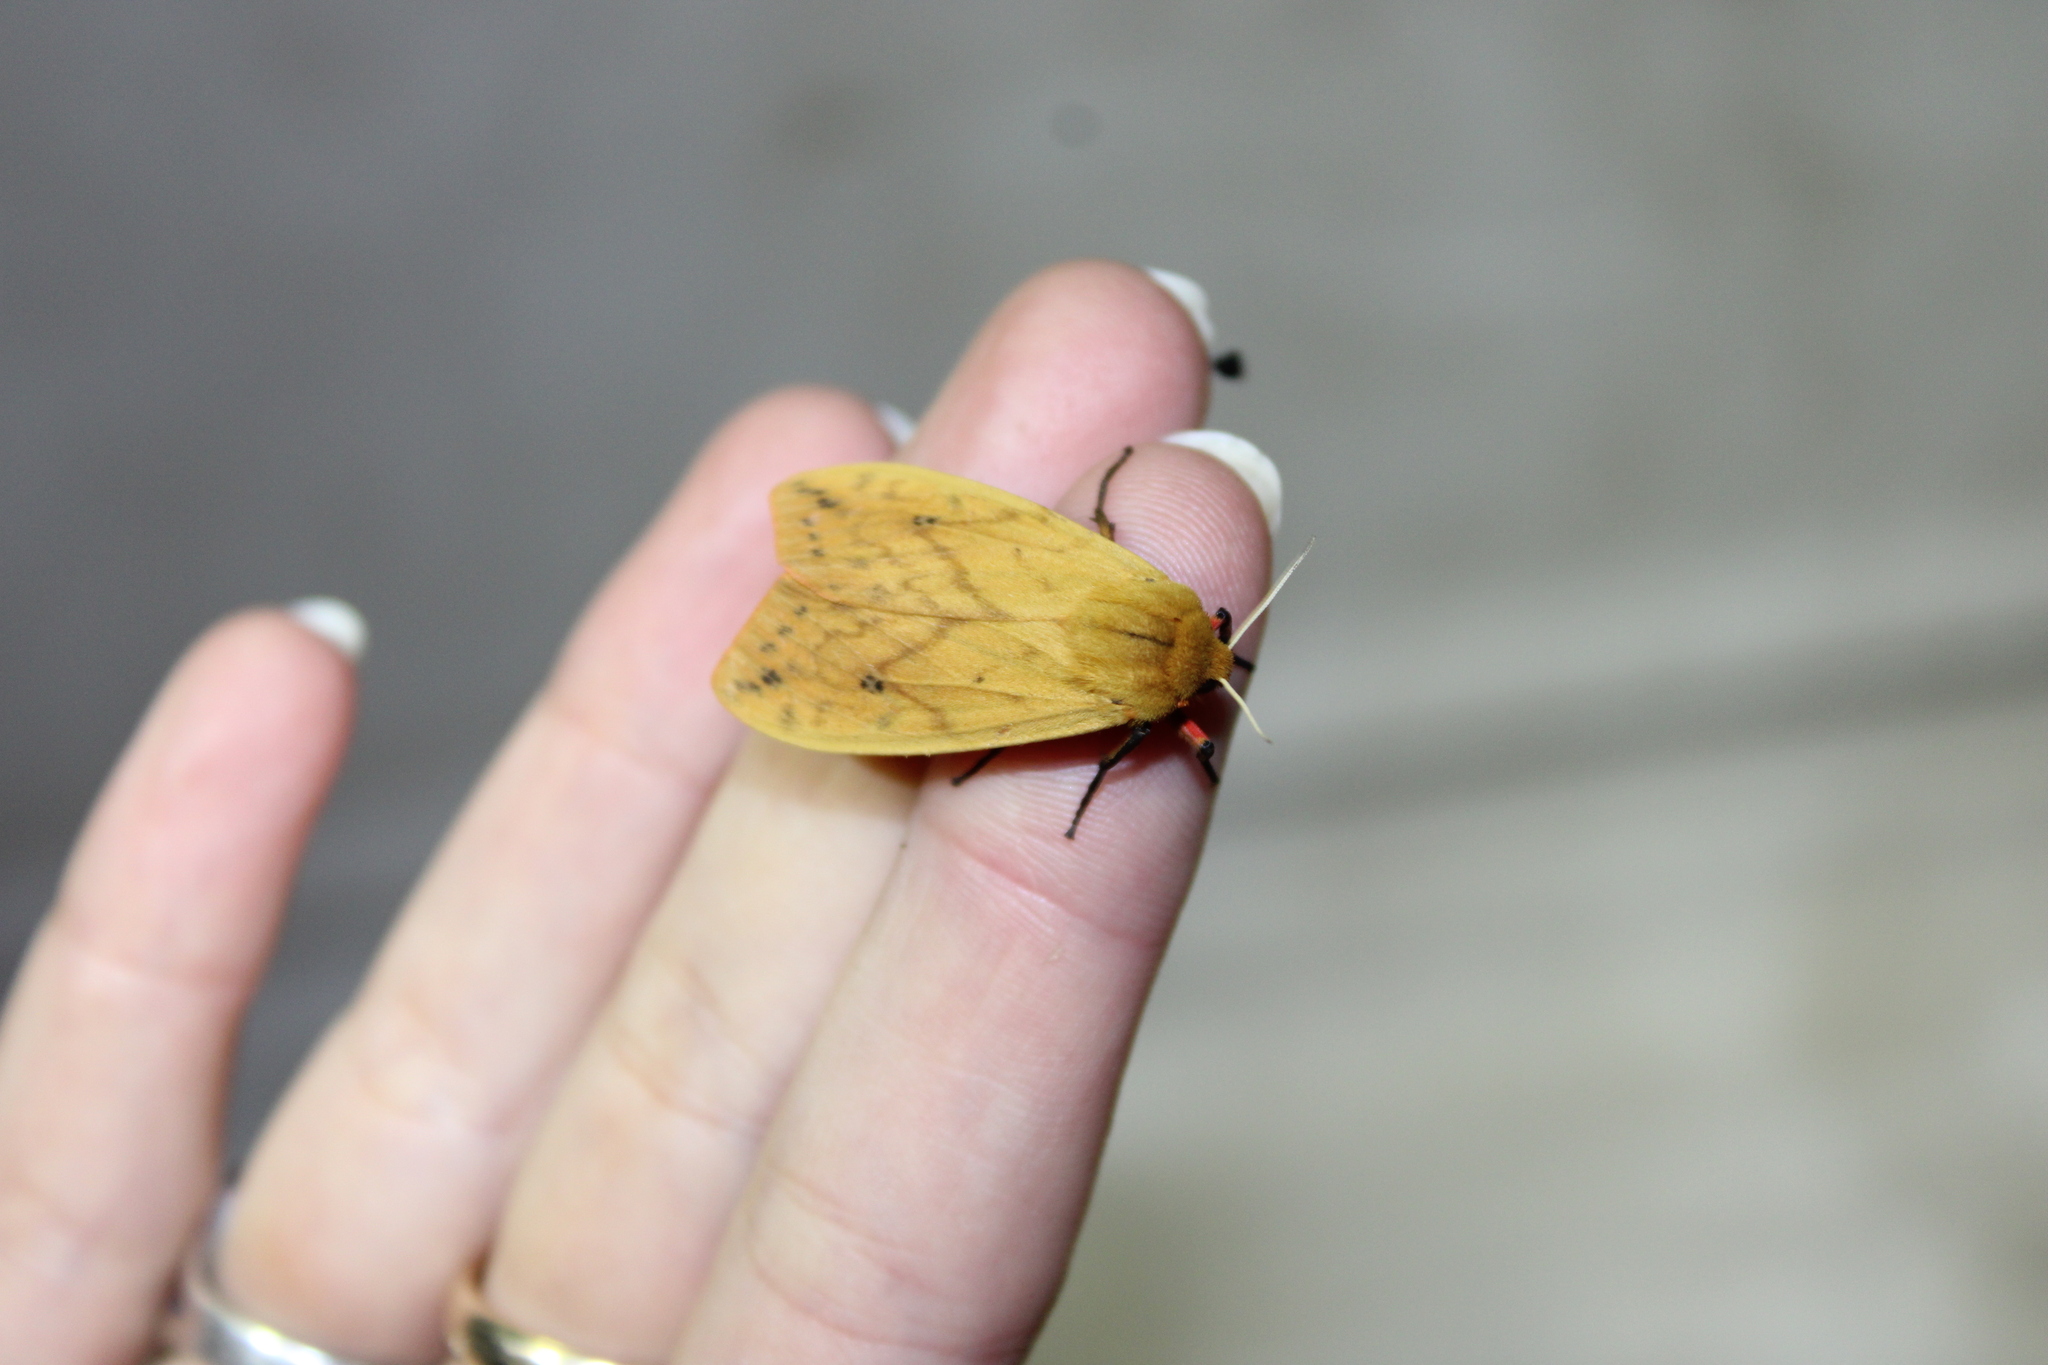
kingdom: Animalia
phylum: Arthropoda
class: Insecta
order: Lepidoptera
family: Erebidae
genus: Pyrrharctia
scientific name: Pyrrharctia isabella
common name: Isabella tiger moth
